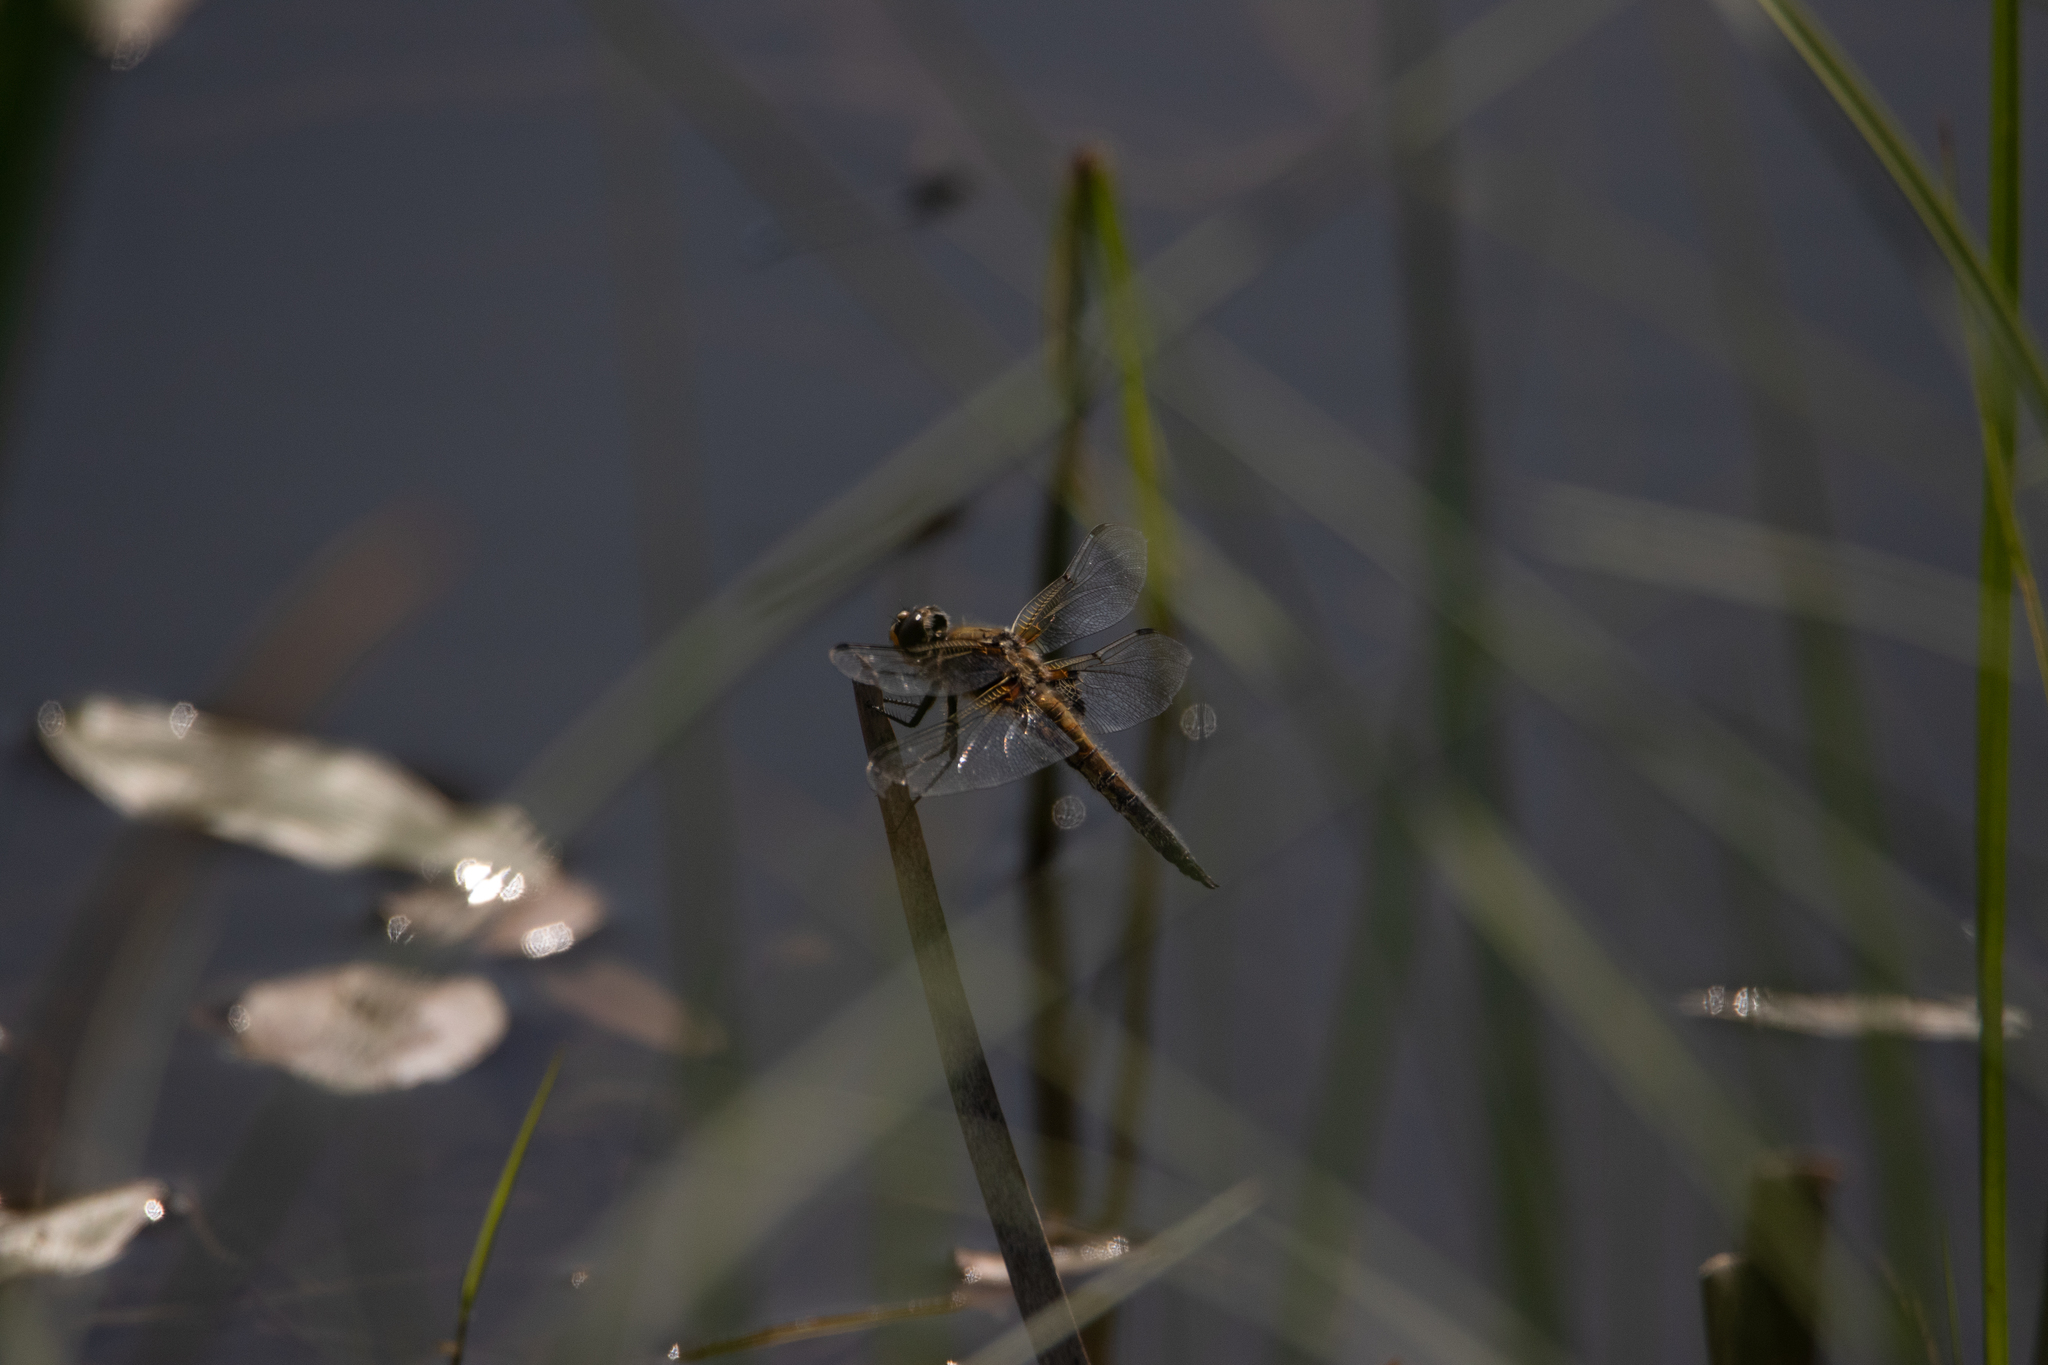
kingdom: Animalia
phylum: Arthropoda
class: Insecta
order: Odonata
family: Libellulidae
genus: Libellula
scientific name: Libellula quadrimaculata
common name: Four-spotted chaser
